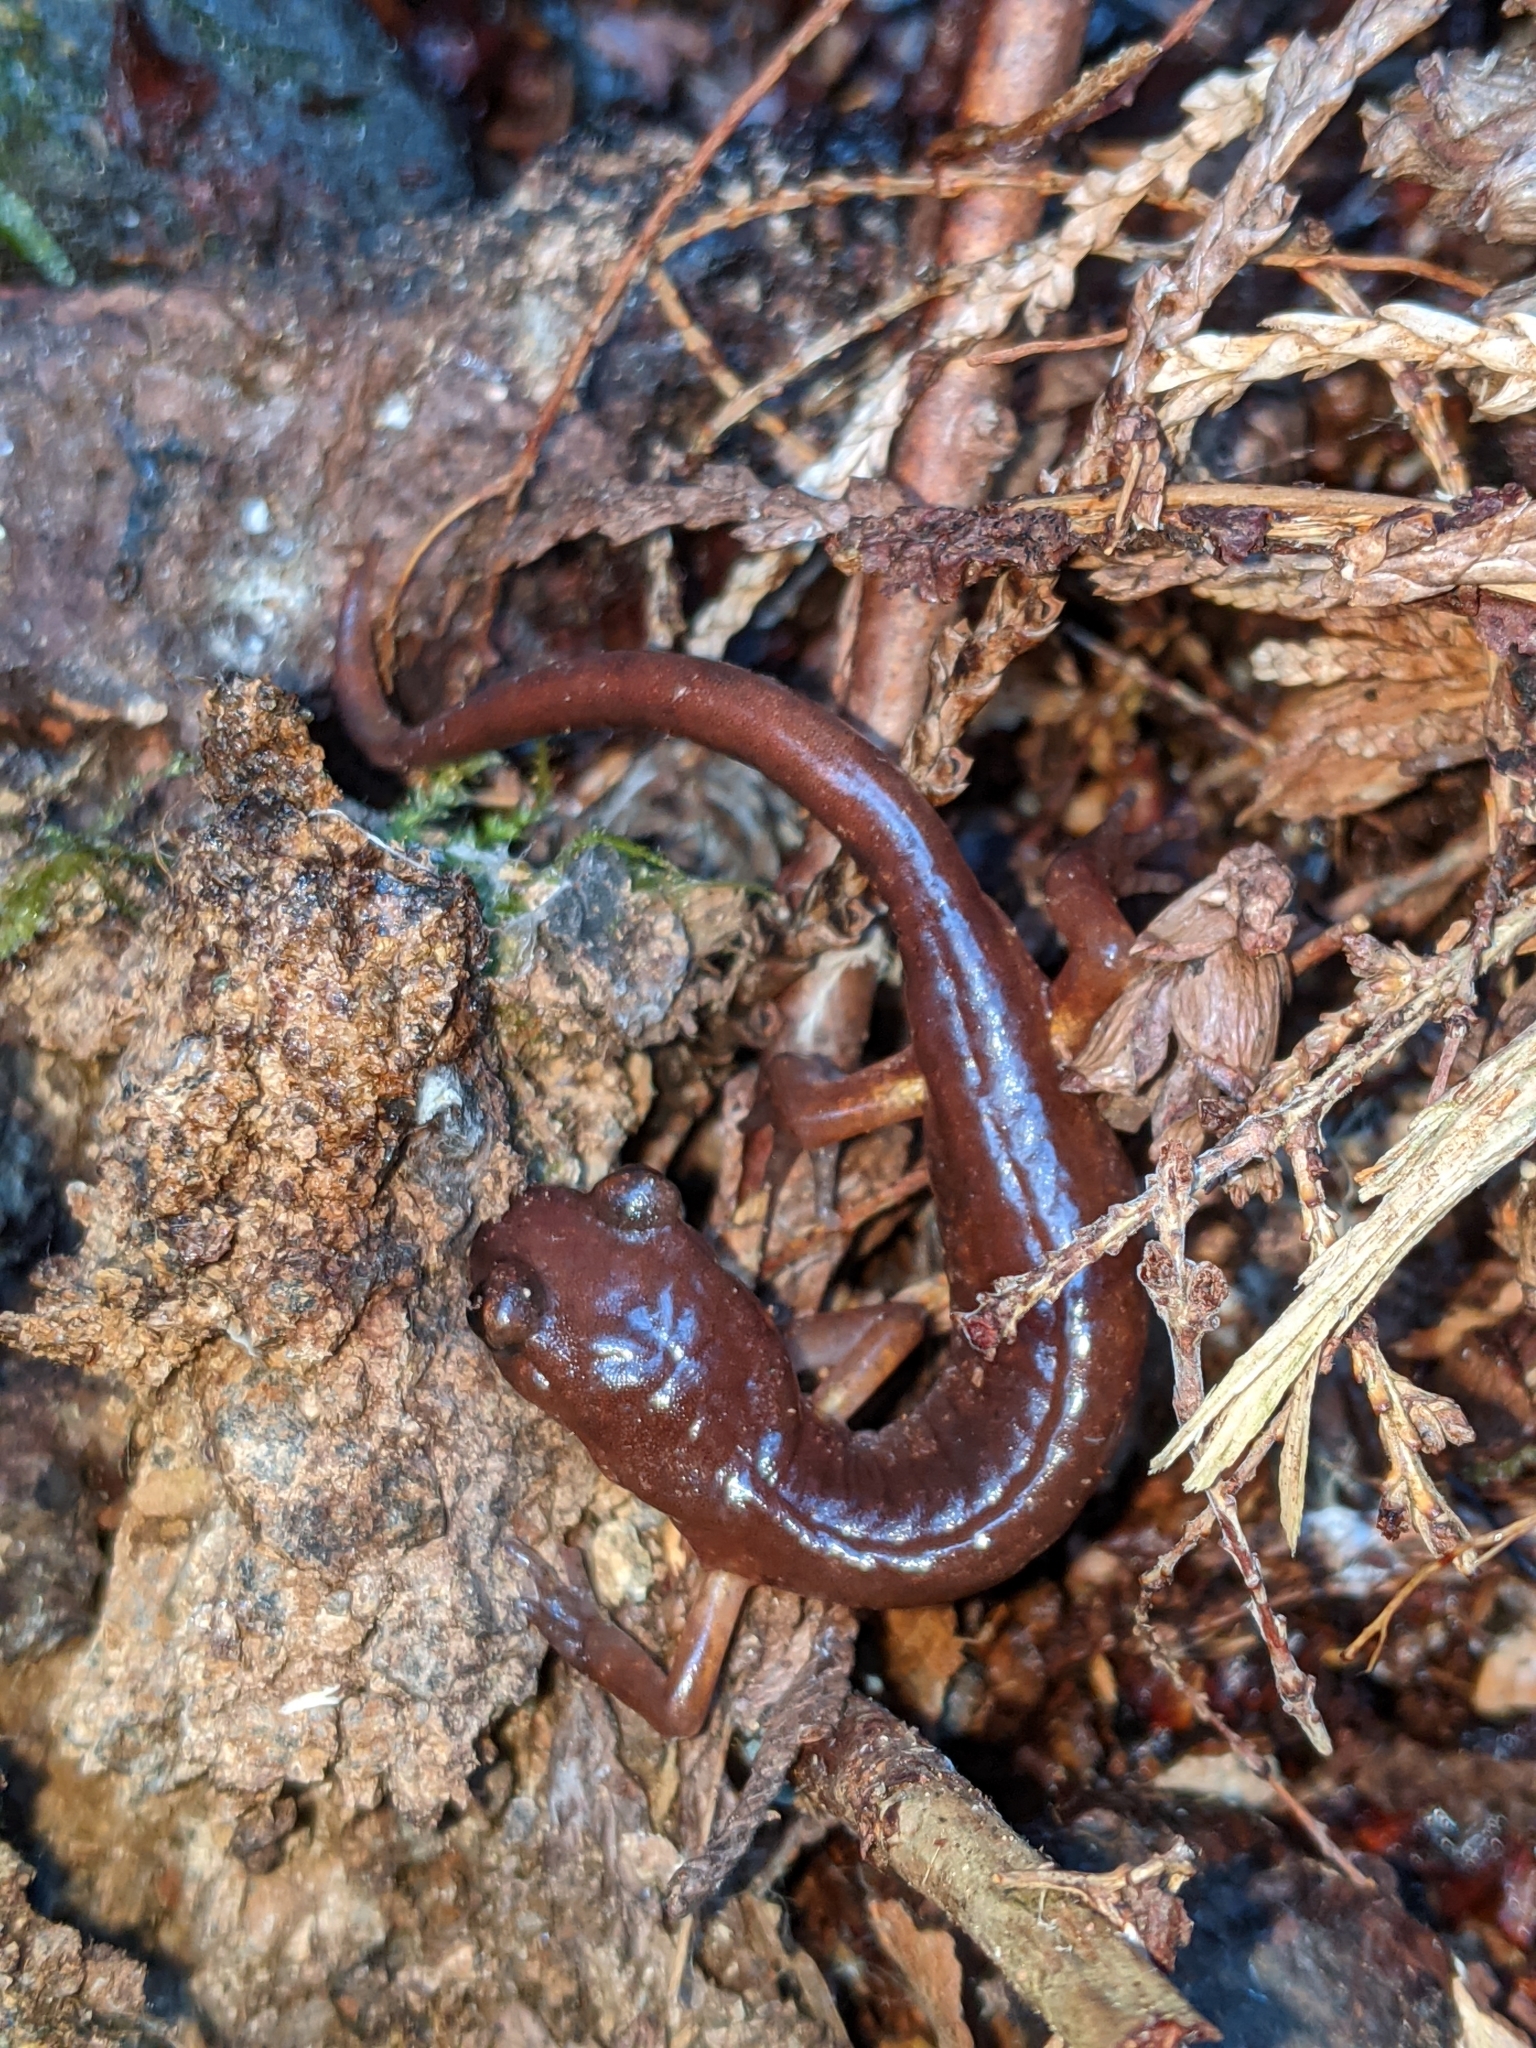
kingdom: Animalia
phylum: Chordata
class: Amphibia
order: Caudata
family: Plethodontidae
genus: Ensatina
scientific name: Ensatina eschscholtzii
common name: Ensatina
